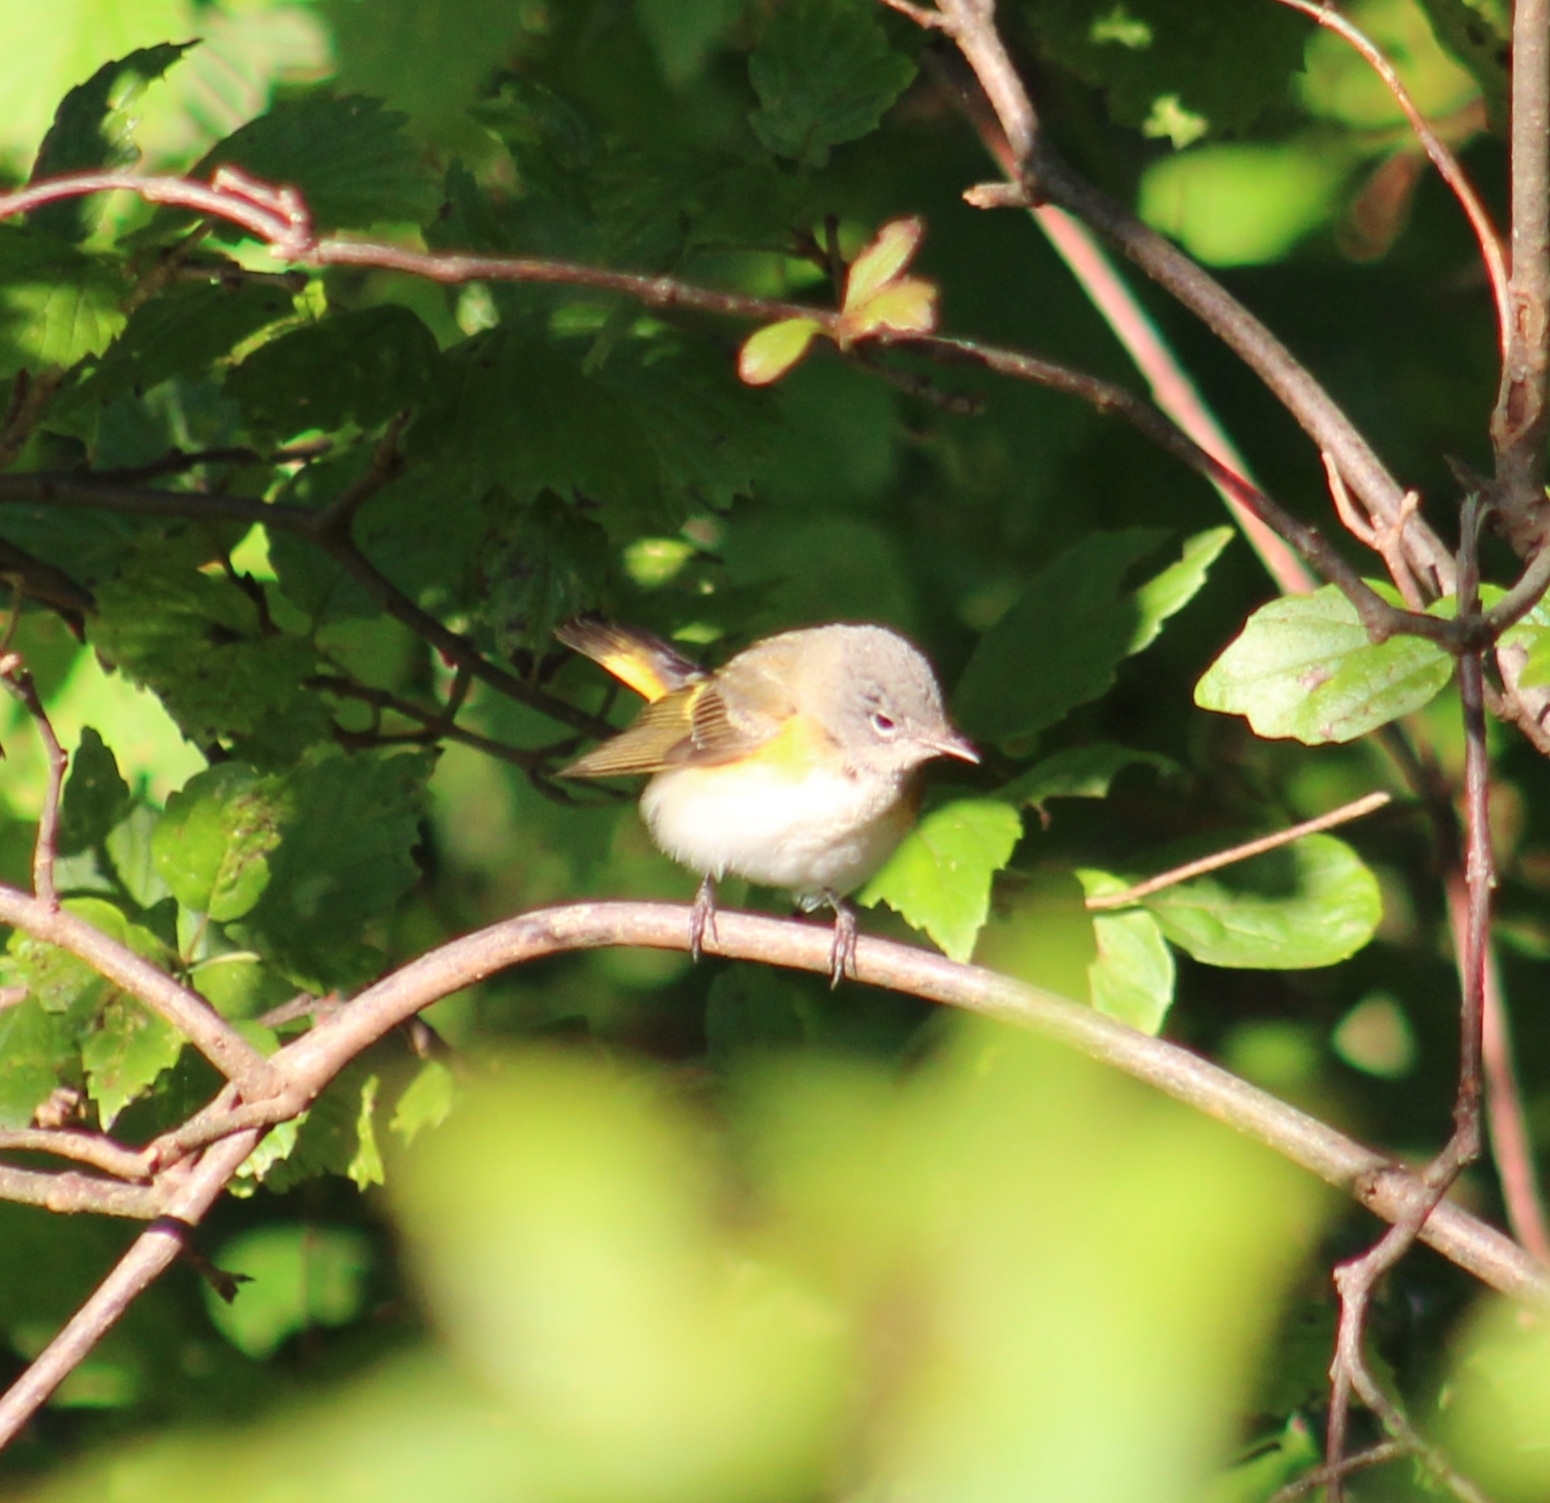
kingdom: Animalia
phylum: Chordata
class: Aves
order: Passeriformes
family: Parulidae
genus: Setophaga
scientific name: Setophaga ruticilla
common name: American redstart
